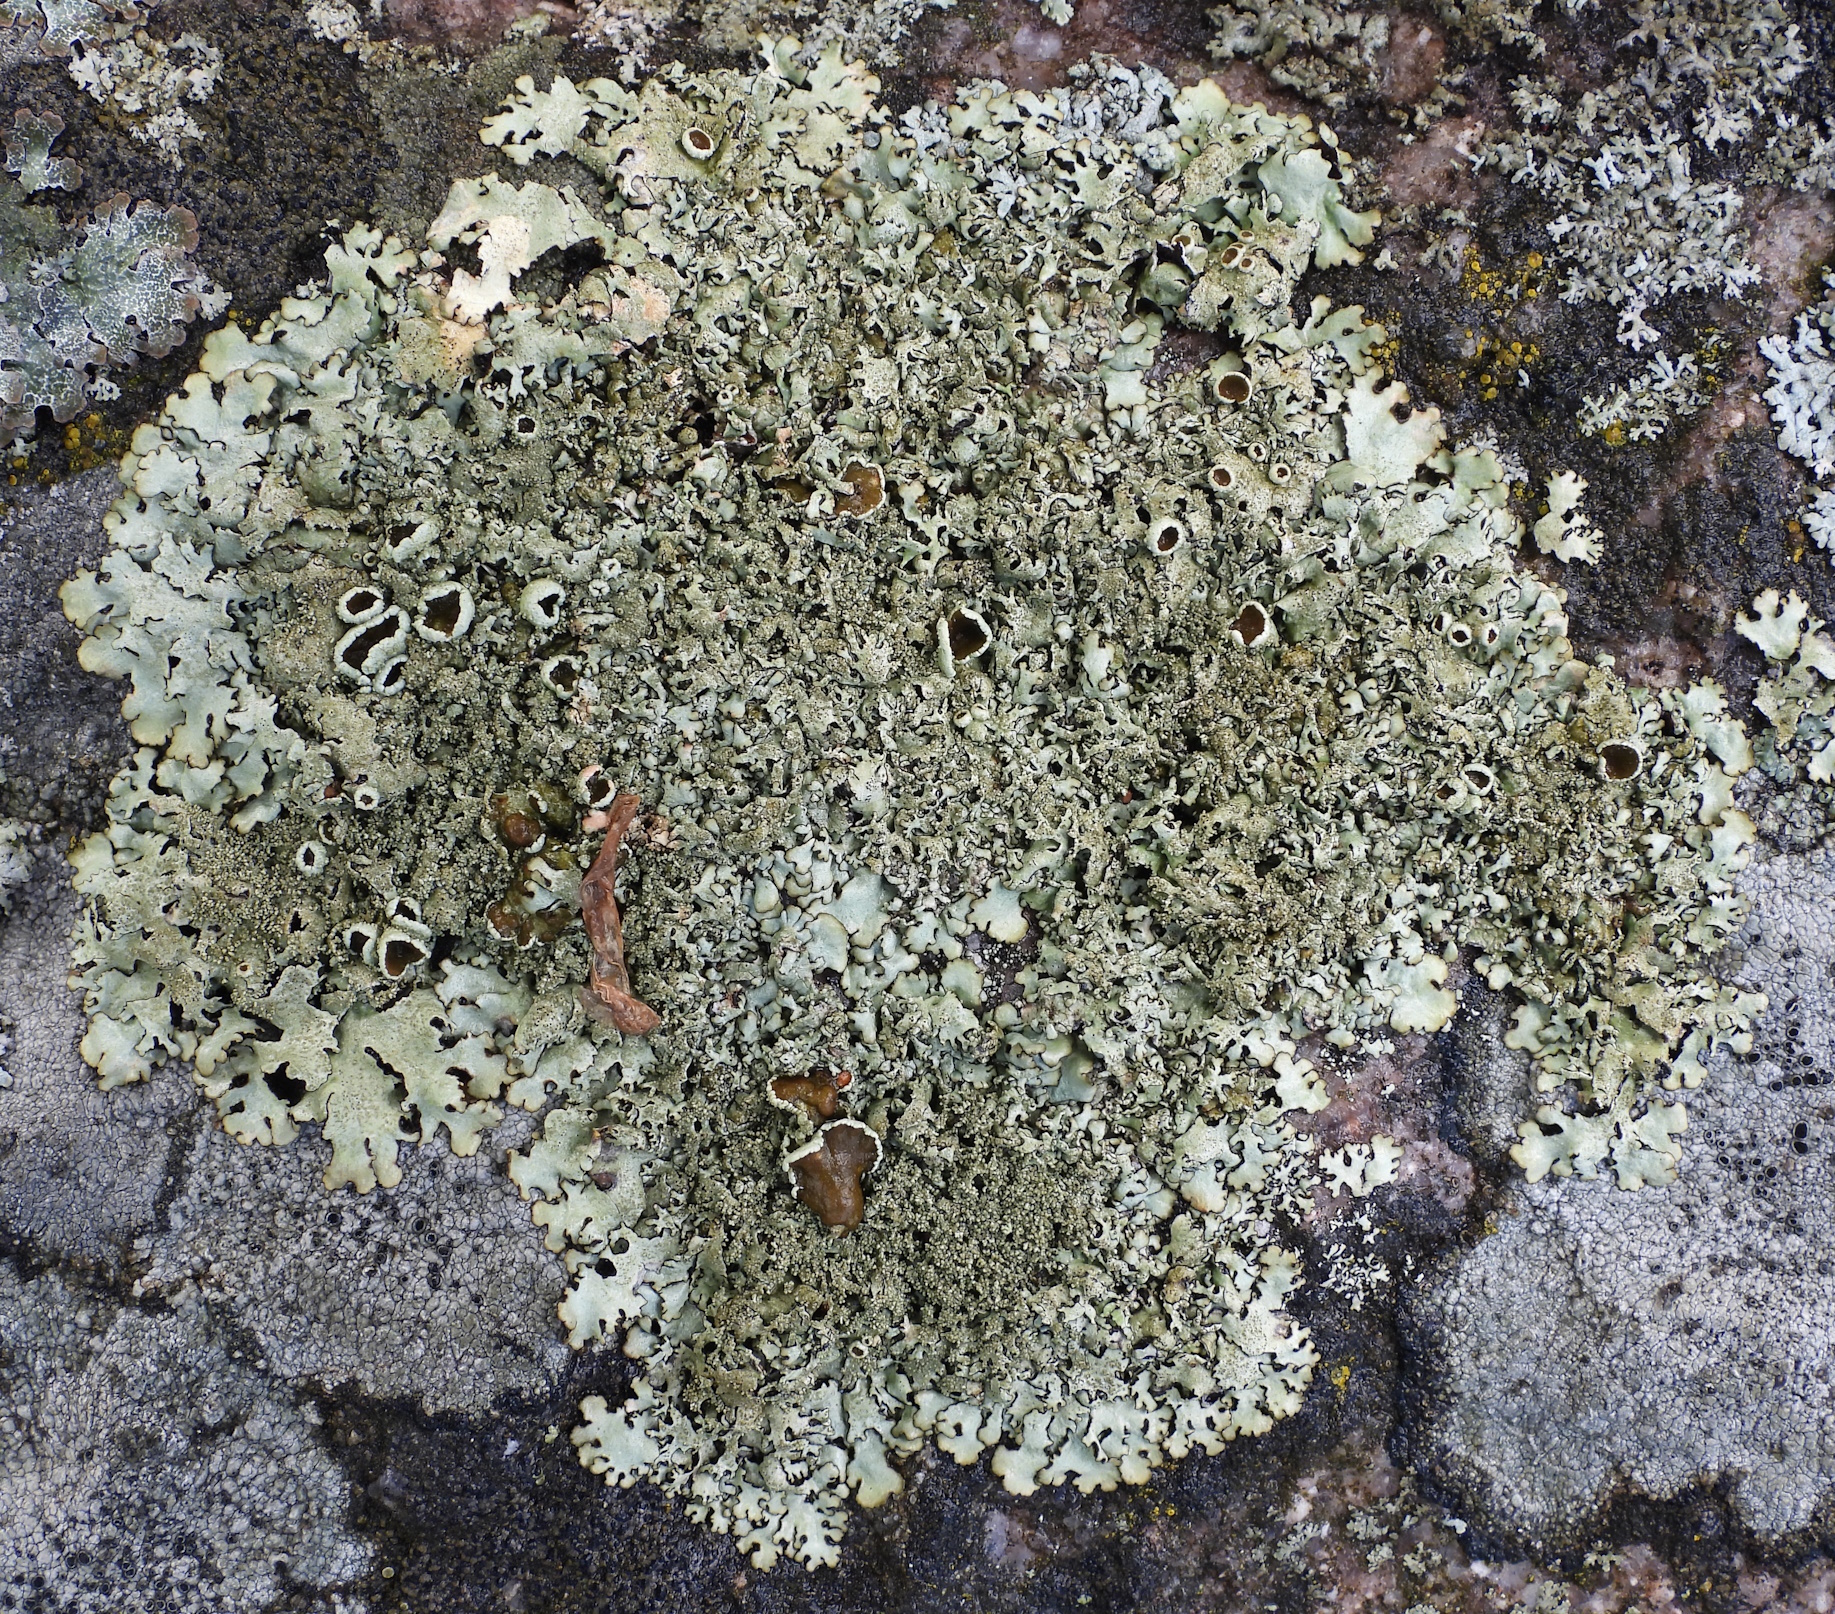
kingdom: Fungi
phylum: Ascomycota
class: Lecanoromycetes
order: Lecanorales
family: Parmeliaceae
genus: Xanthoparmelia
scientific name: Xanthoparmelia conspersa
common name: Peppered rock shield
